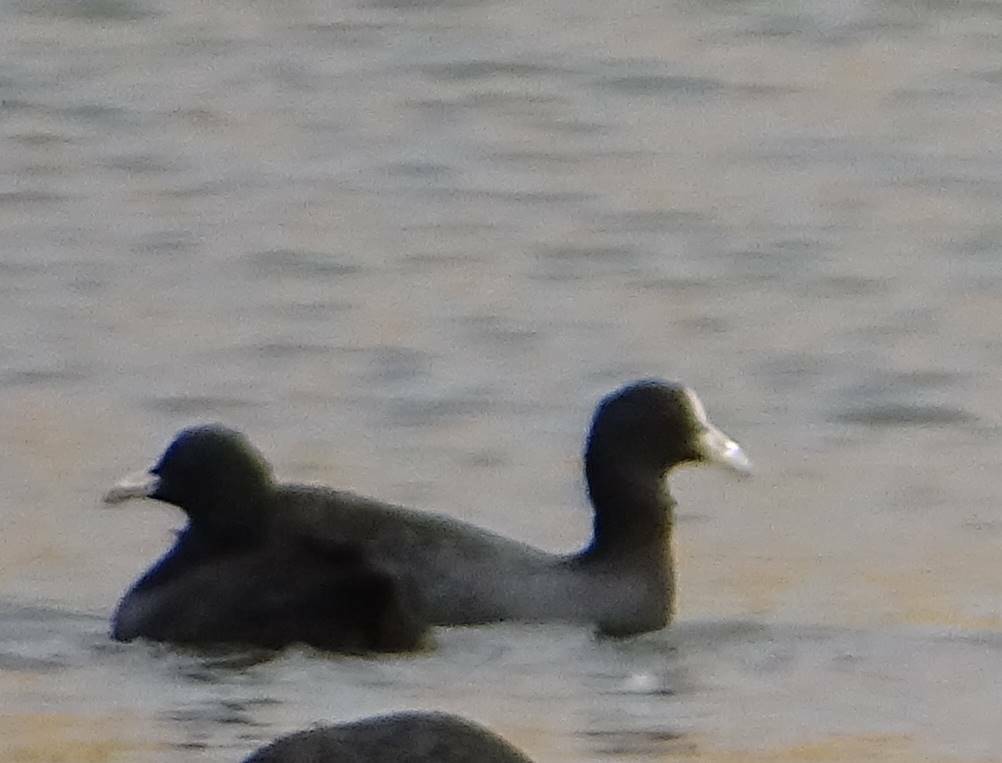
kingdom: Animalia
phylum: Chordata
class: Aves
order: Gruiformes
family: Rallidae
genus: Fulica
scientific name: Fulica atra
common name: Eurasian coot
